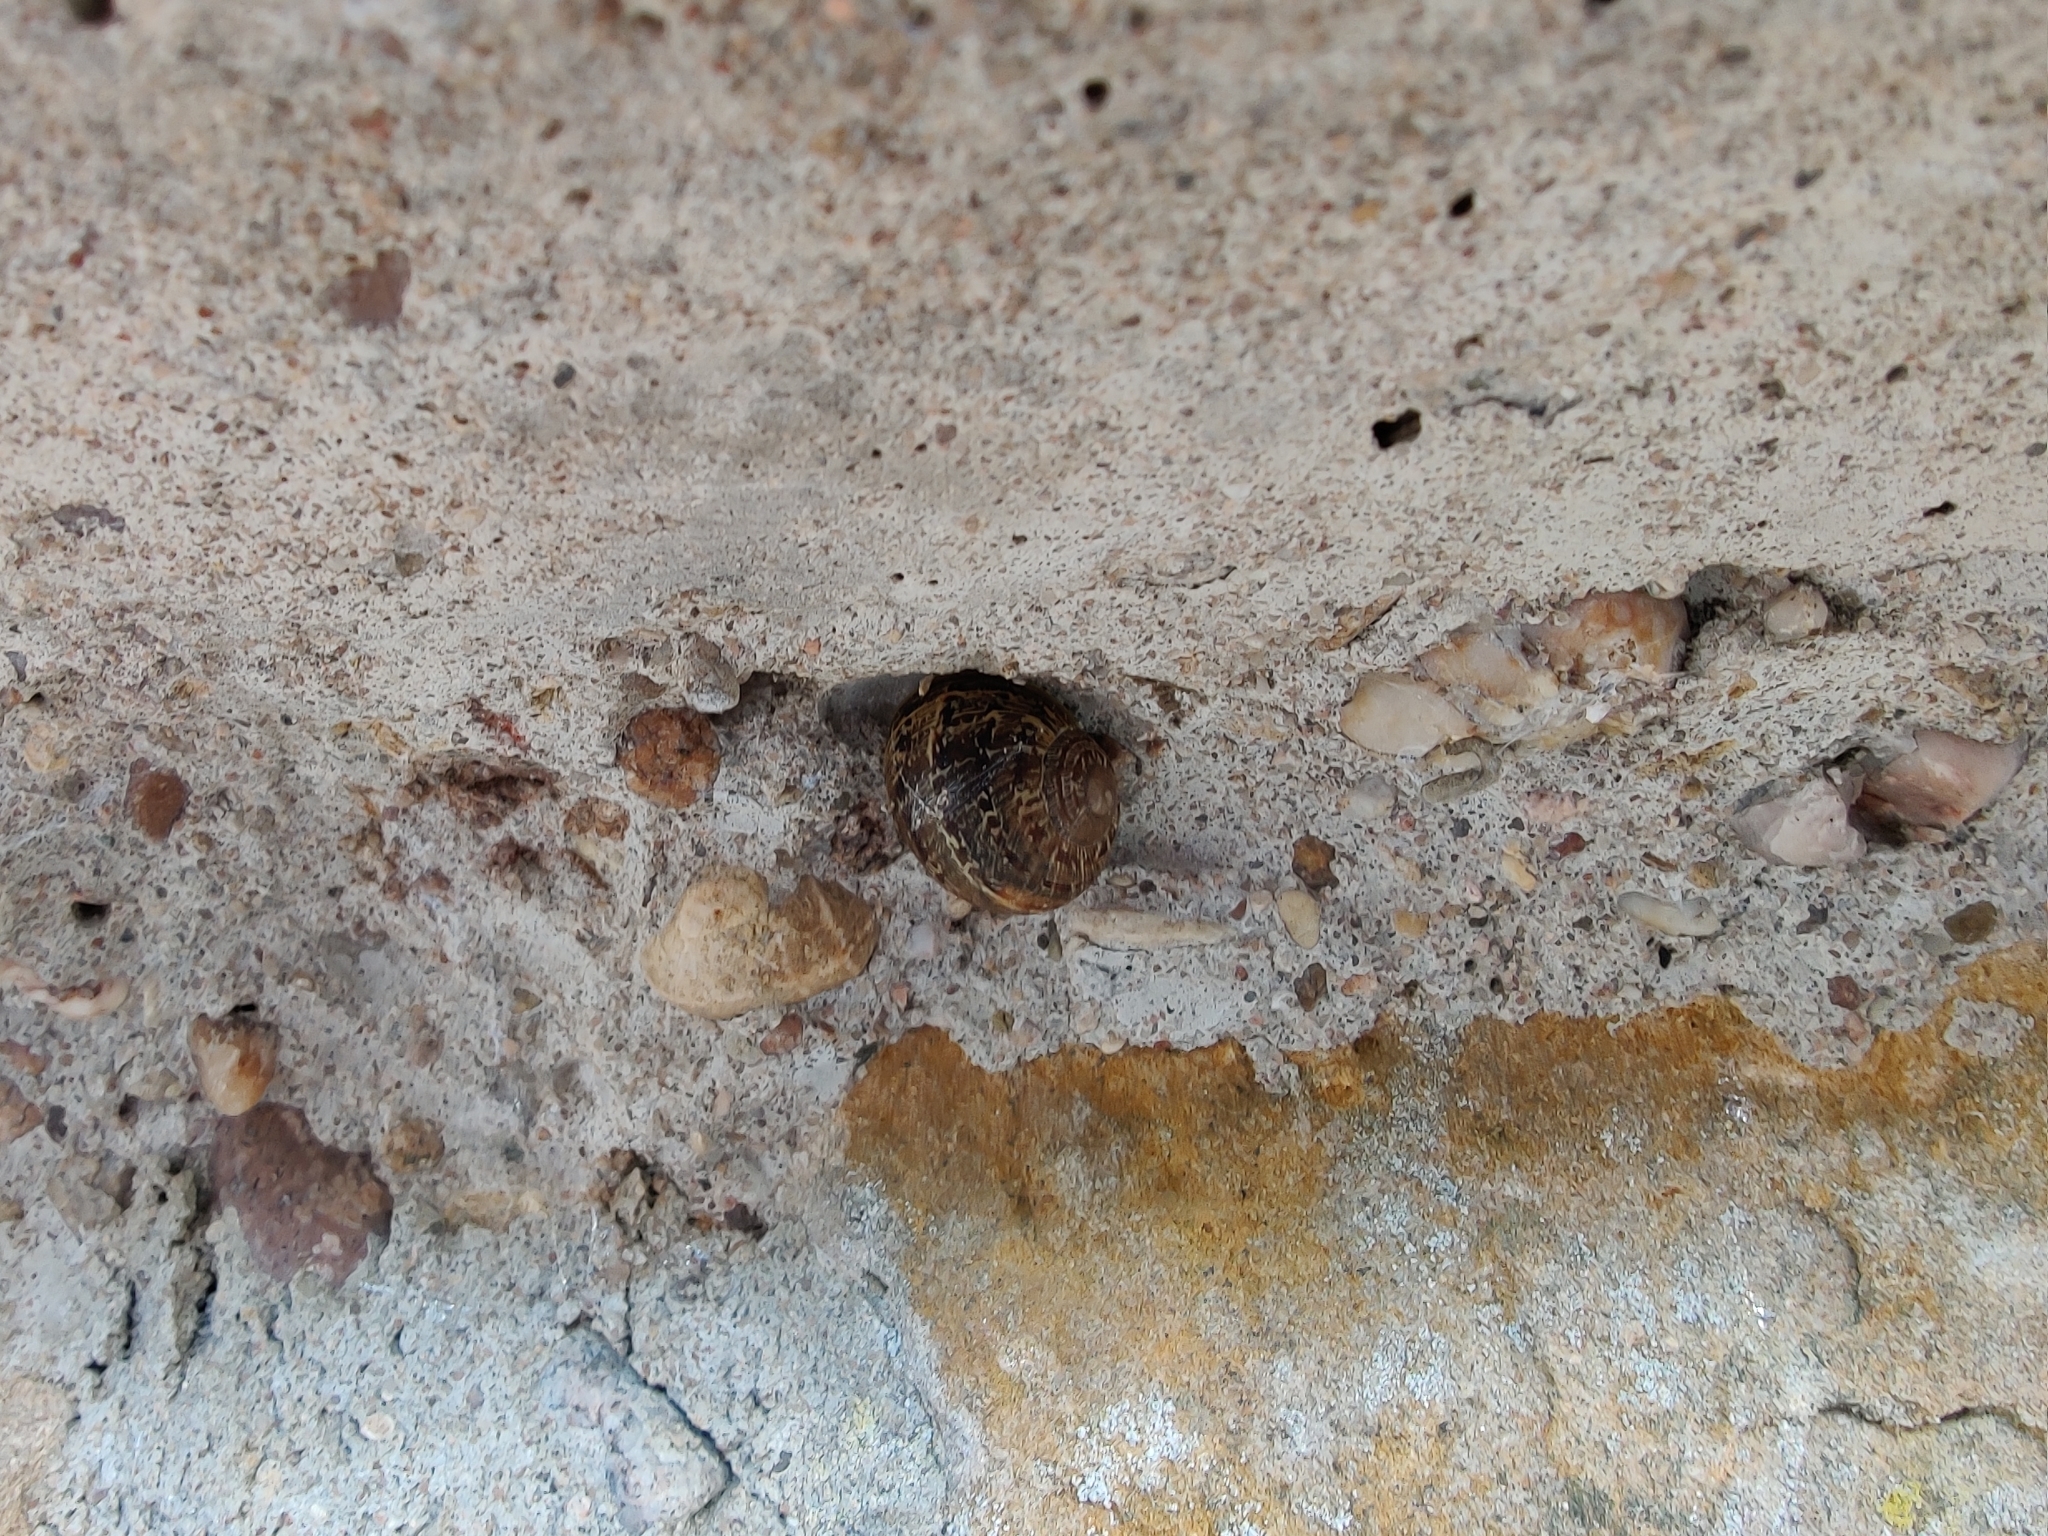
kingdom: Animalia
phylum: Mollusca
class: Gastropoda
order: Stylommatophora
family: Helicidae
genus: Cornu
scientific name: Cornu aspersum
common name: Brown garden snail
